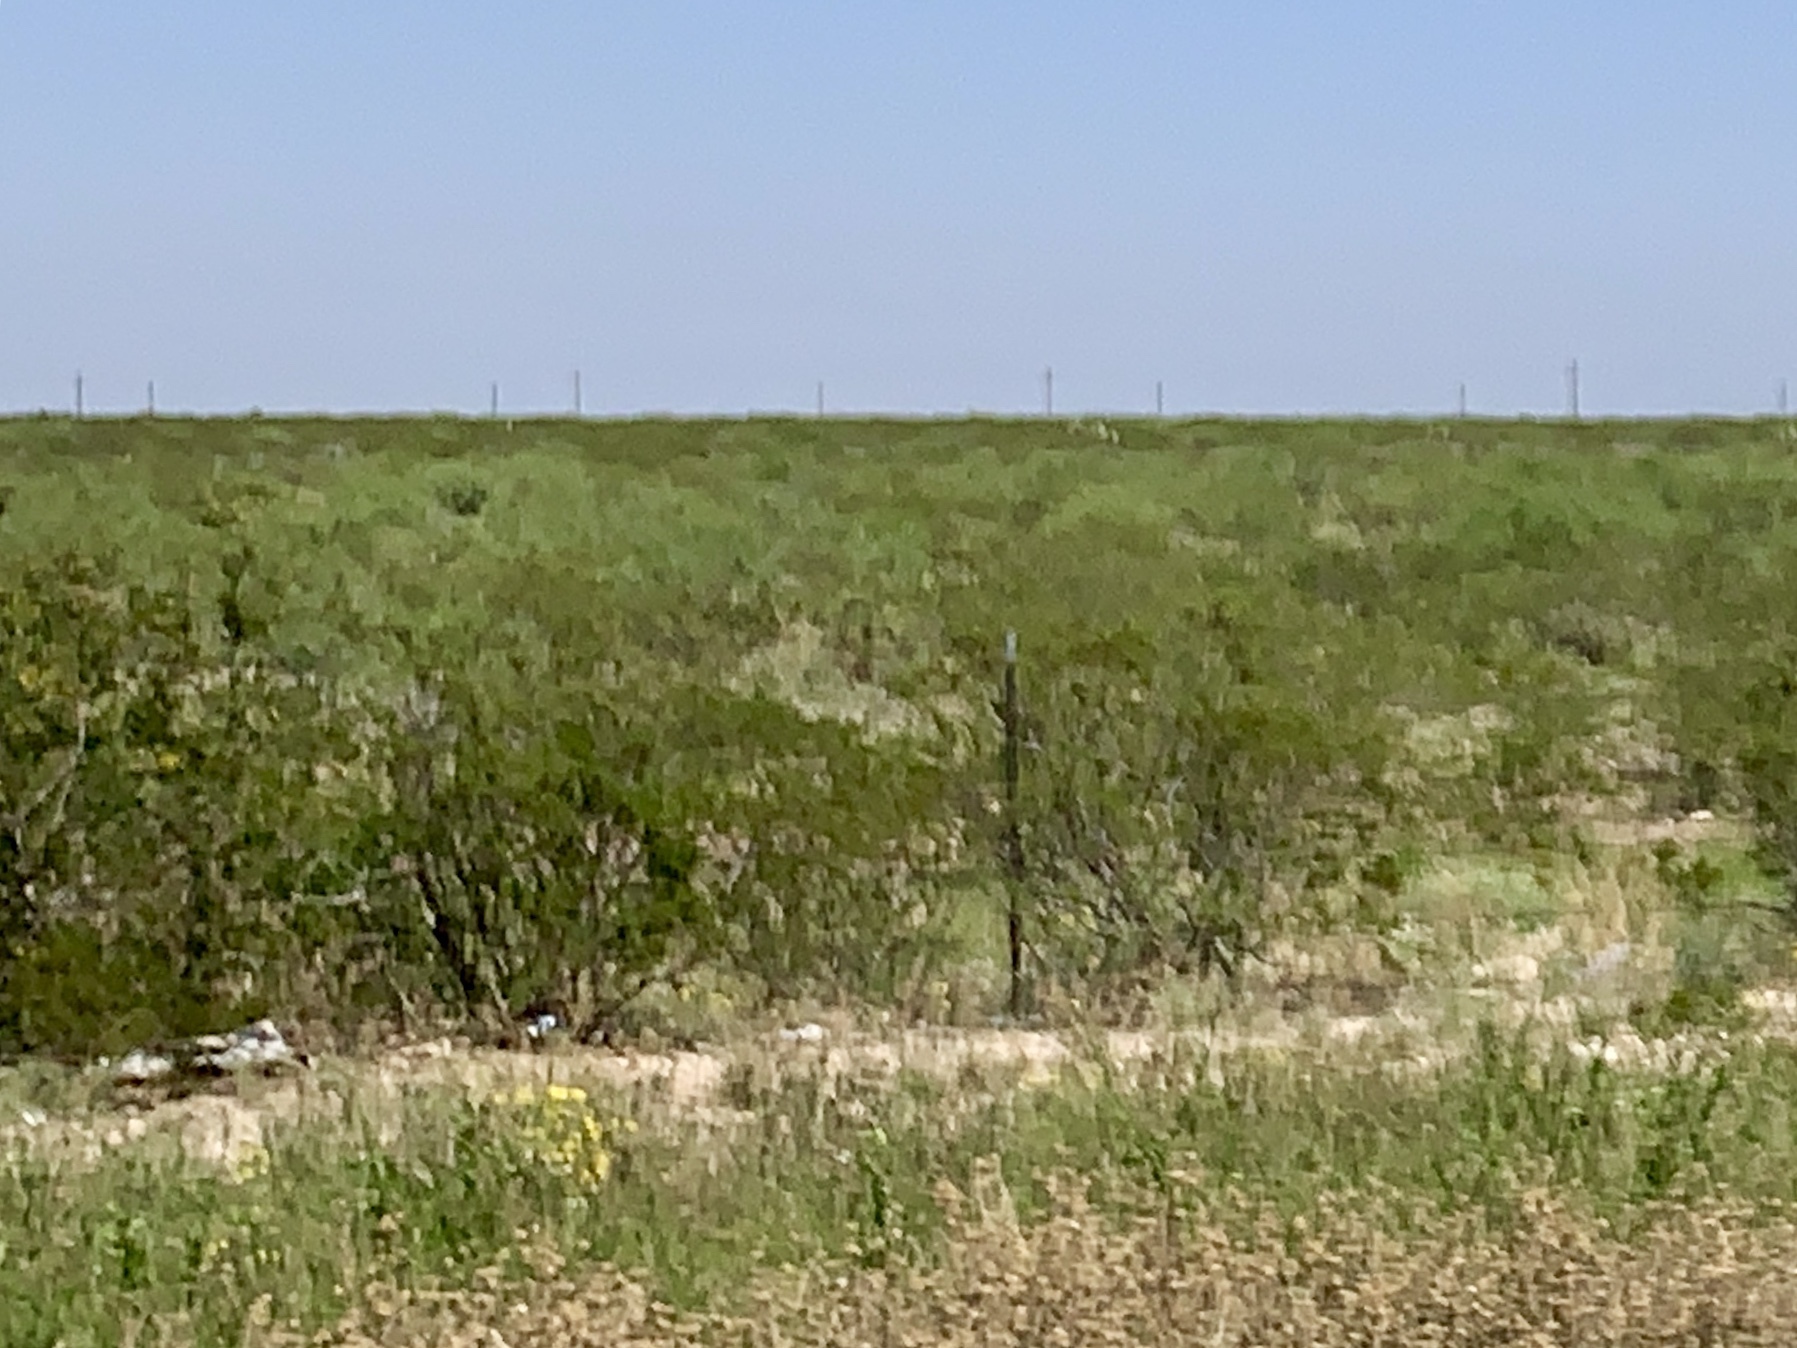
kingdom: Plantae
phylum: Tracheophyta
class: Magnoliopsida
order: Zygophyllales
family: Zygophyllaceae
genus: Larrea
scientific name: Larrea tridentata
